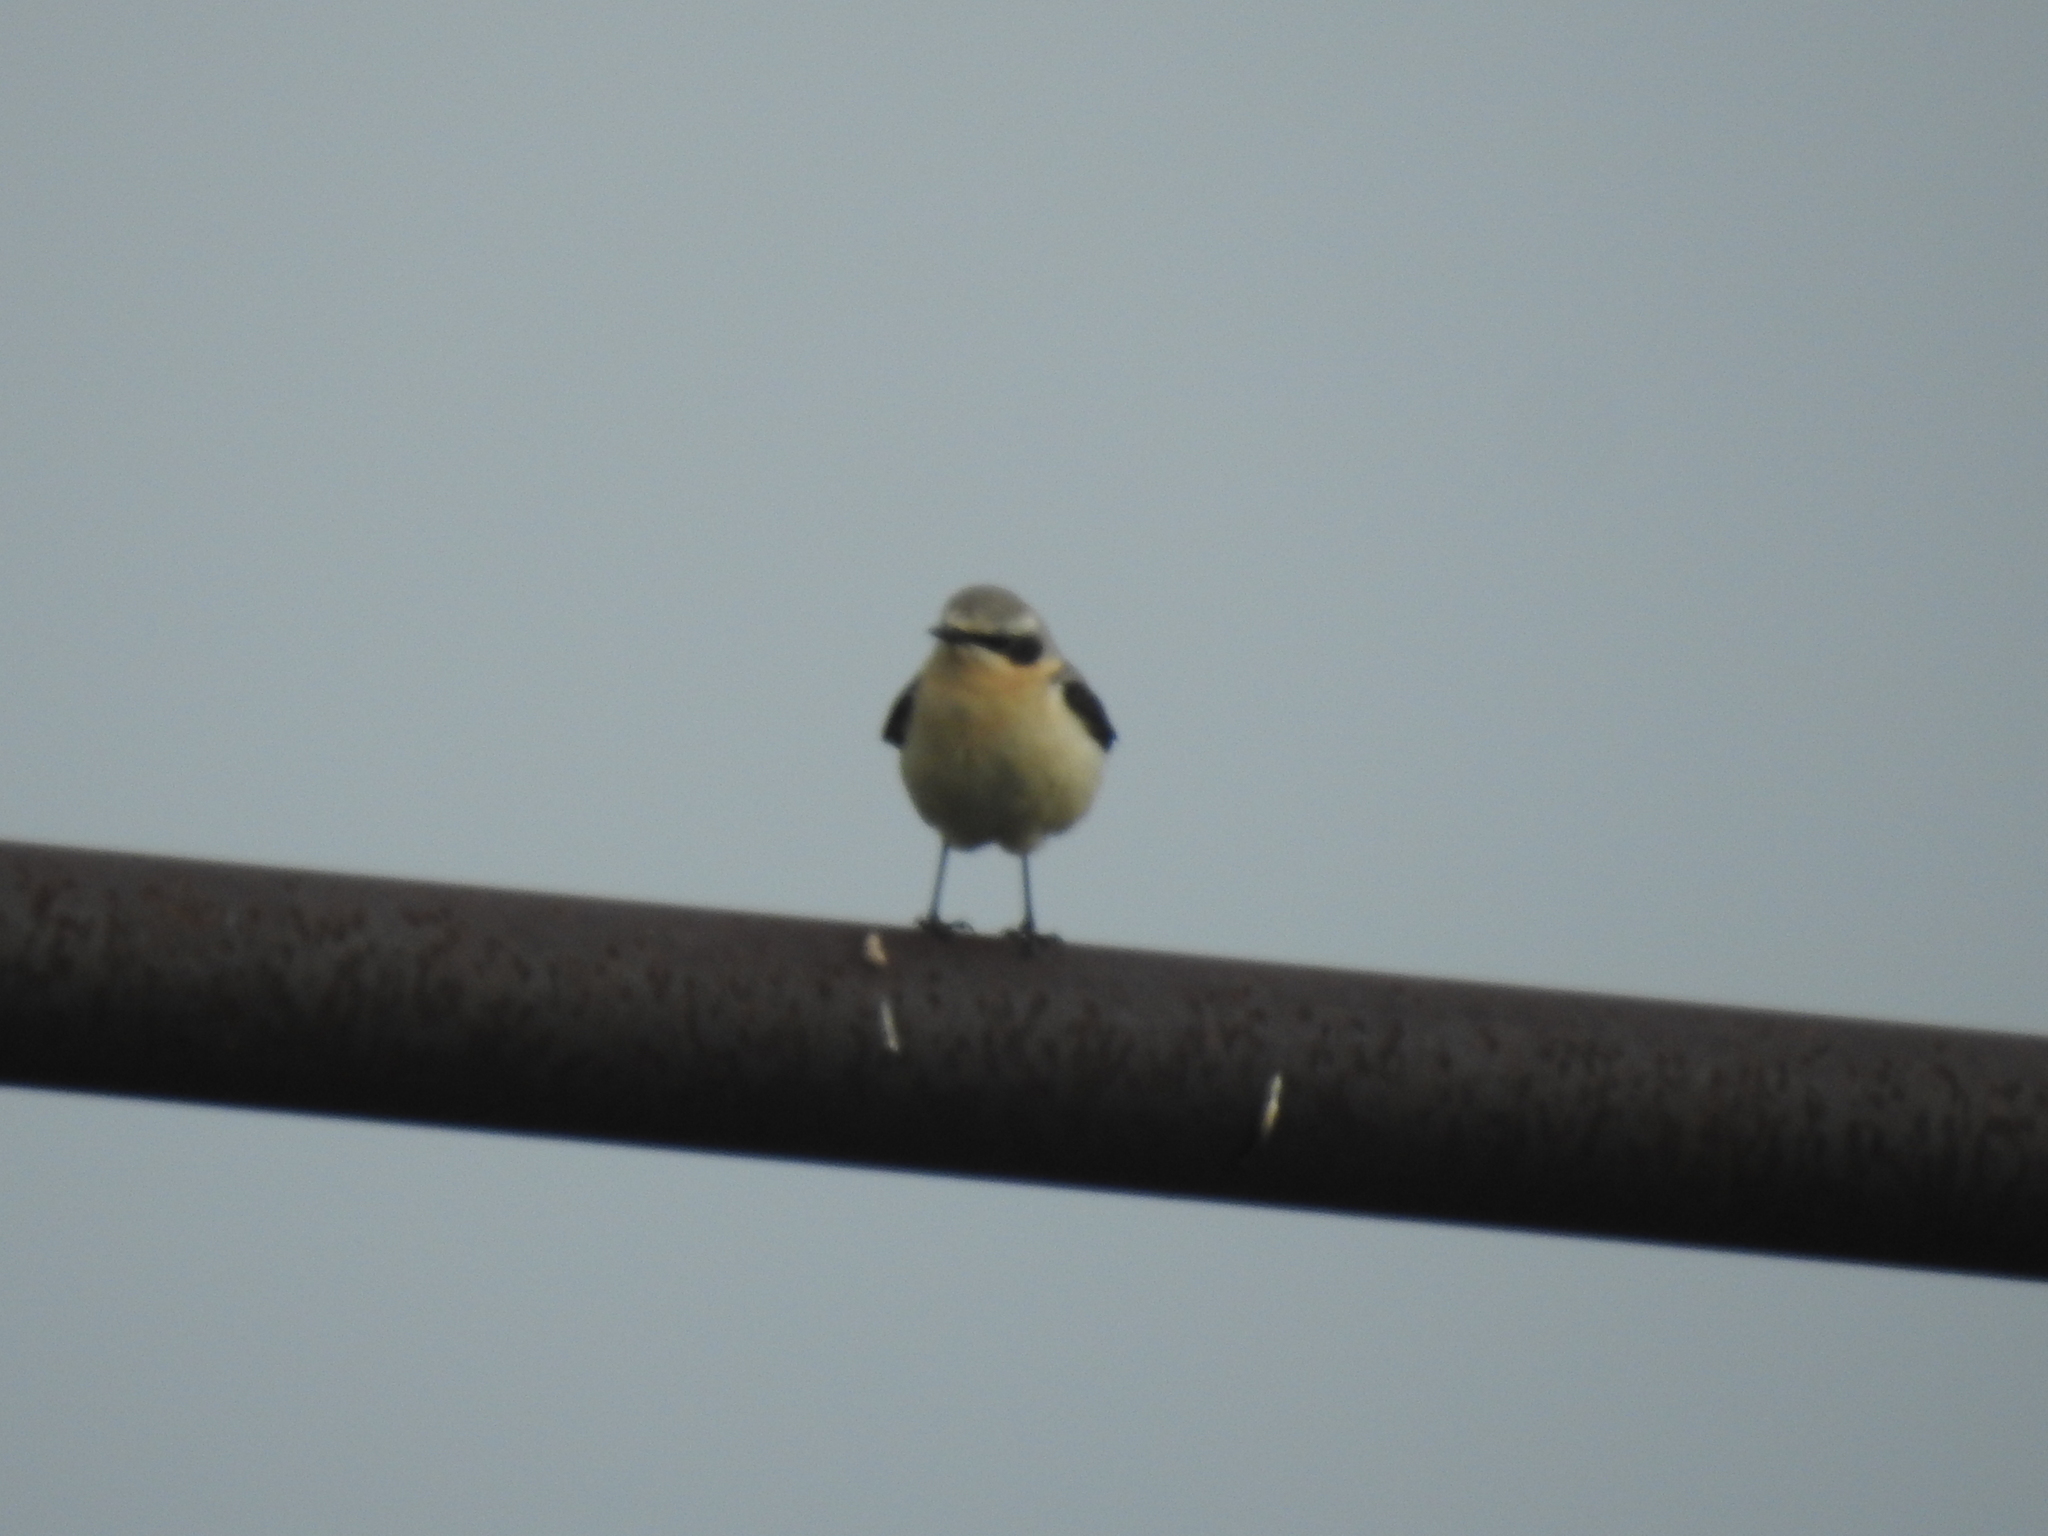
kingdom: Animalia
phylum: Chordata
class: Aves
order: Passeriformes
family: Muscicapidae
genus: Oenanthe
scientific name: Oenanthe oenanthe
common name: Northern wheatear
